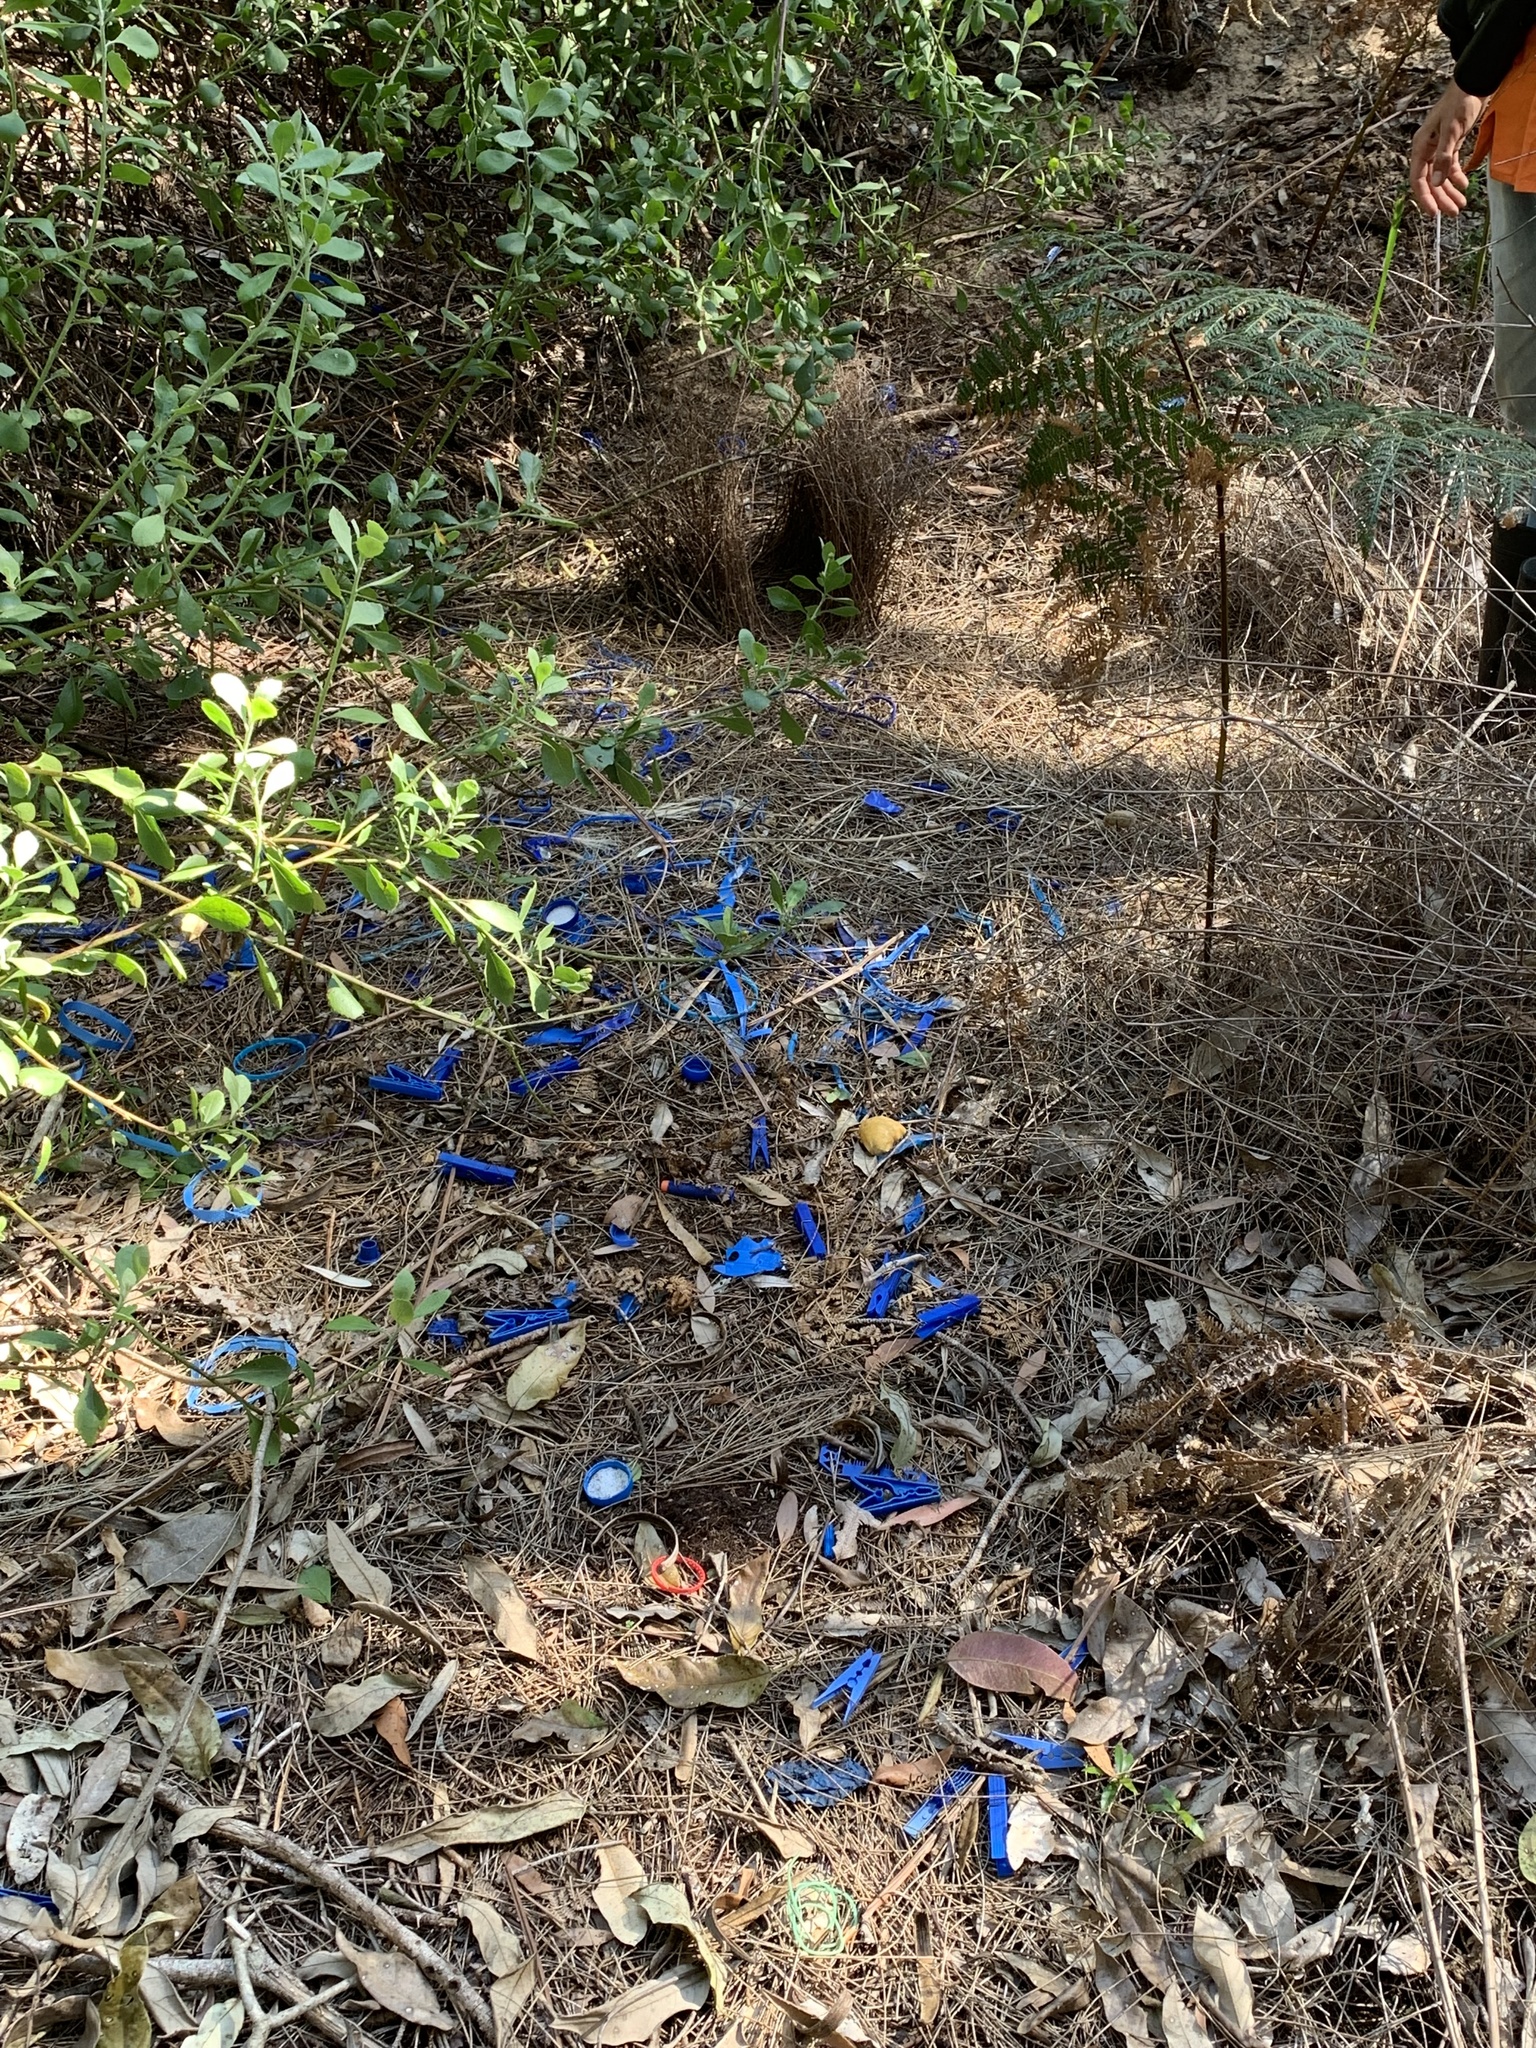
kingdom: Animalia
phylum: Chordata
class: Aves
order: Passeriformes
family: Ptilonorhynchidae
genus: Ptilonorhynchus
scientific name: Ptilonorhynchus violaceus
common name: Satin bowerbird
